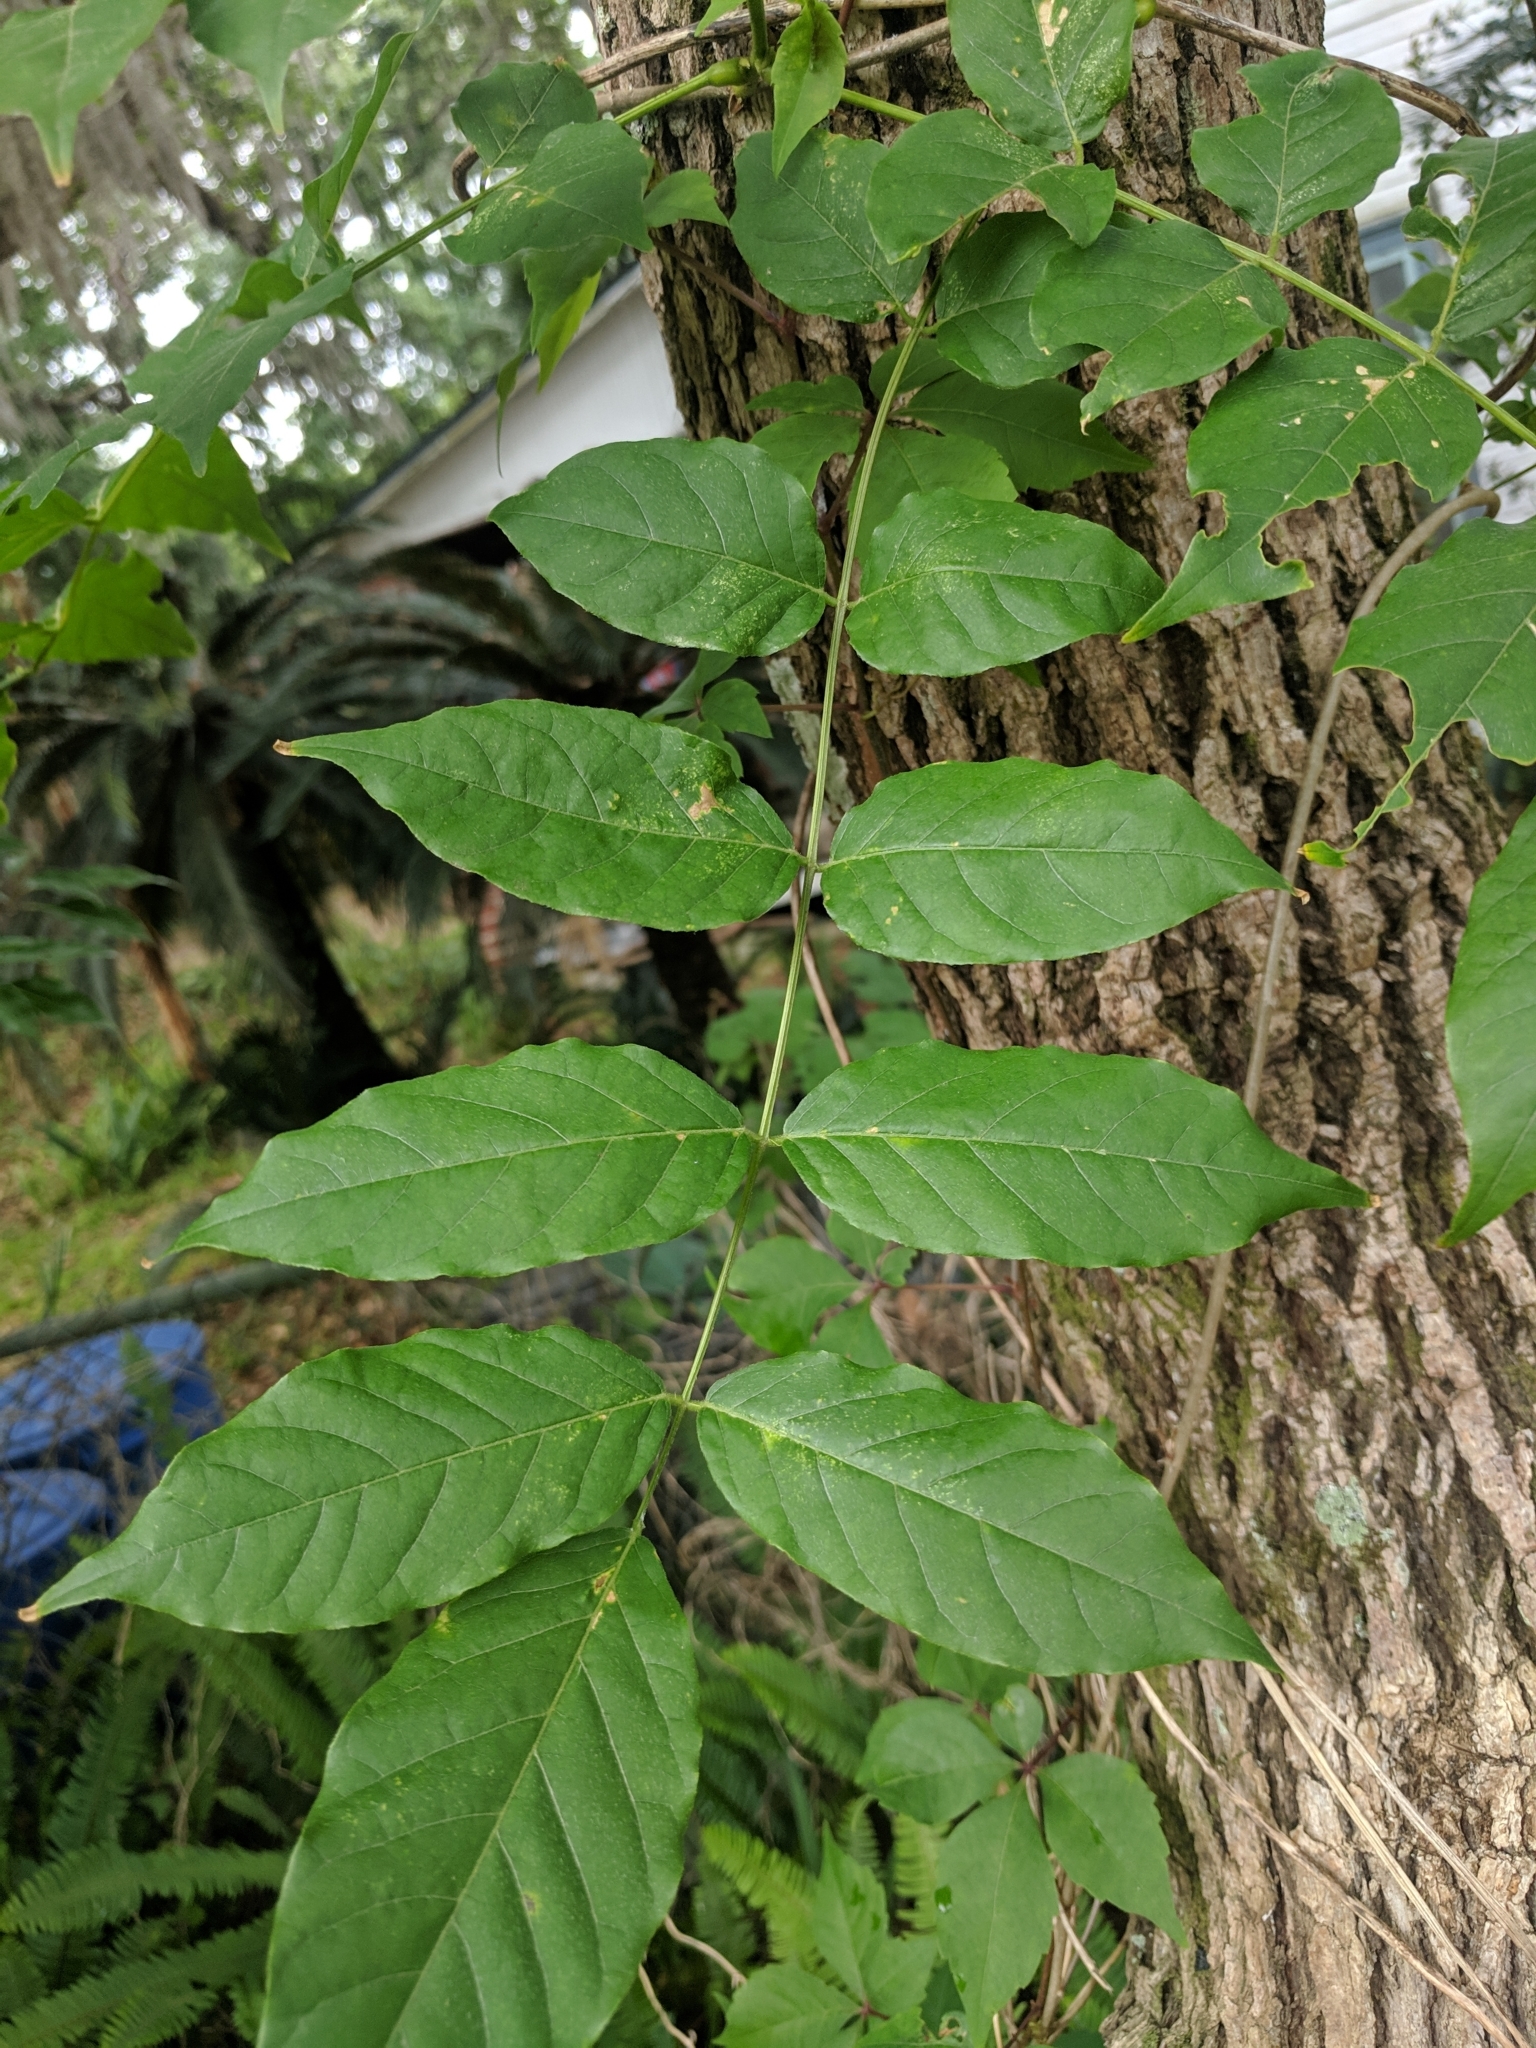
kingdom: Plantae
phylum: Tracheophyta
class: Magnoliopsida
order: Fabales
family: Fabaceae
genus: Wisteria
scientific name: Wisteria sinensis
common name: Chinese wisteria
